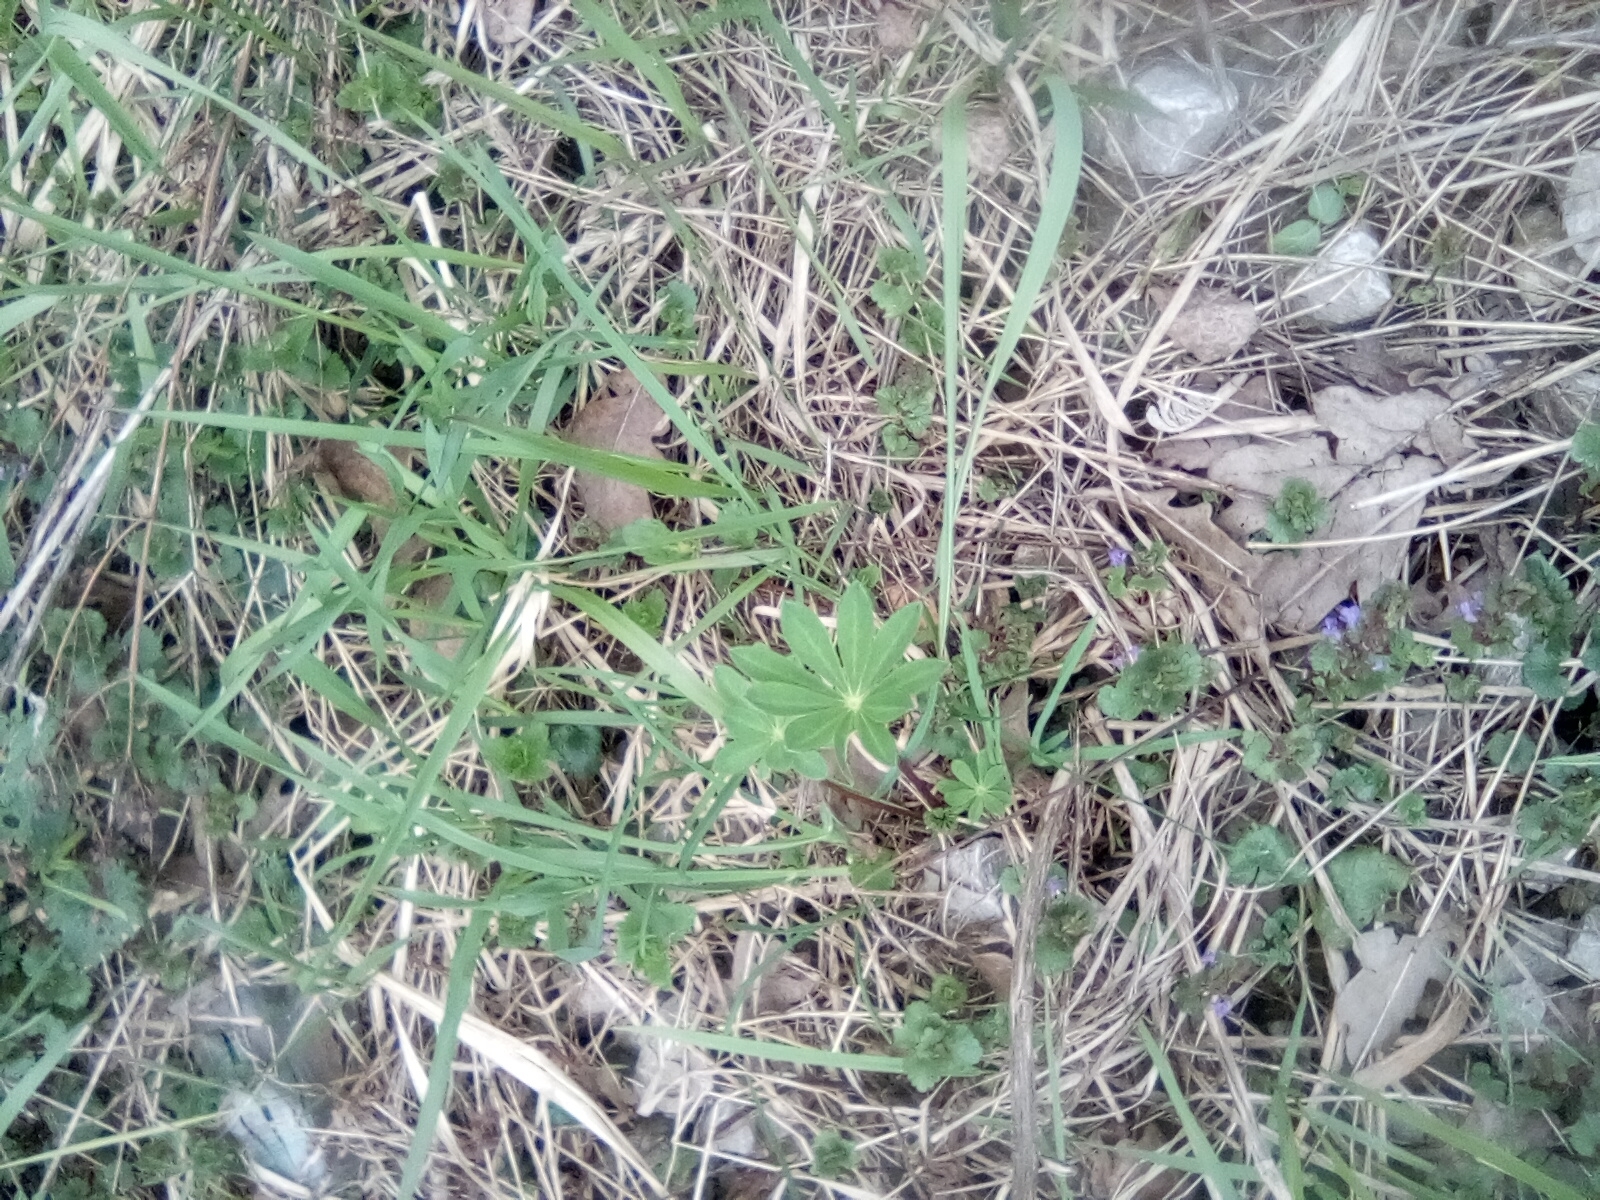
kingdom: Plantae
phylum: Tracheophyta
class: Magnoliopsida
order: Fabales
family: Fabaceae
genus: Lupinus
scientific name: Lupinus polyphyllus
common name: Garden lupin
